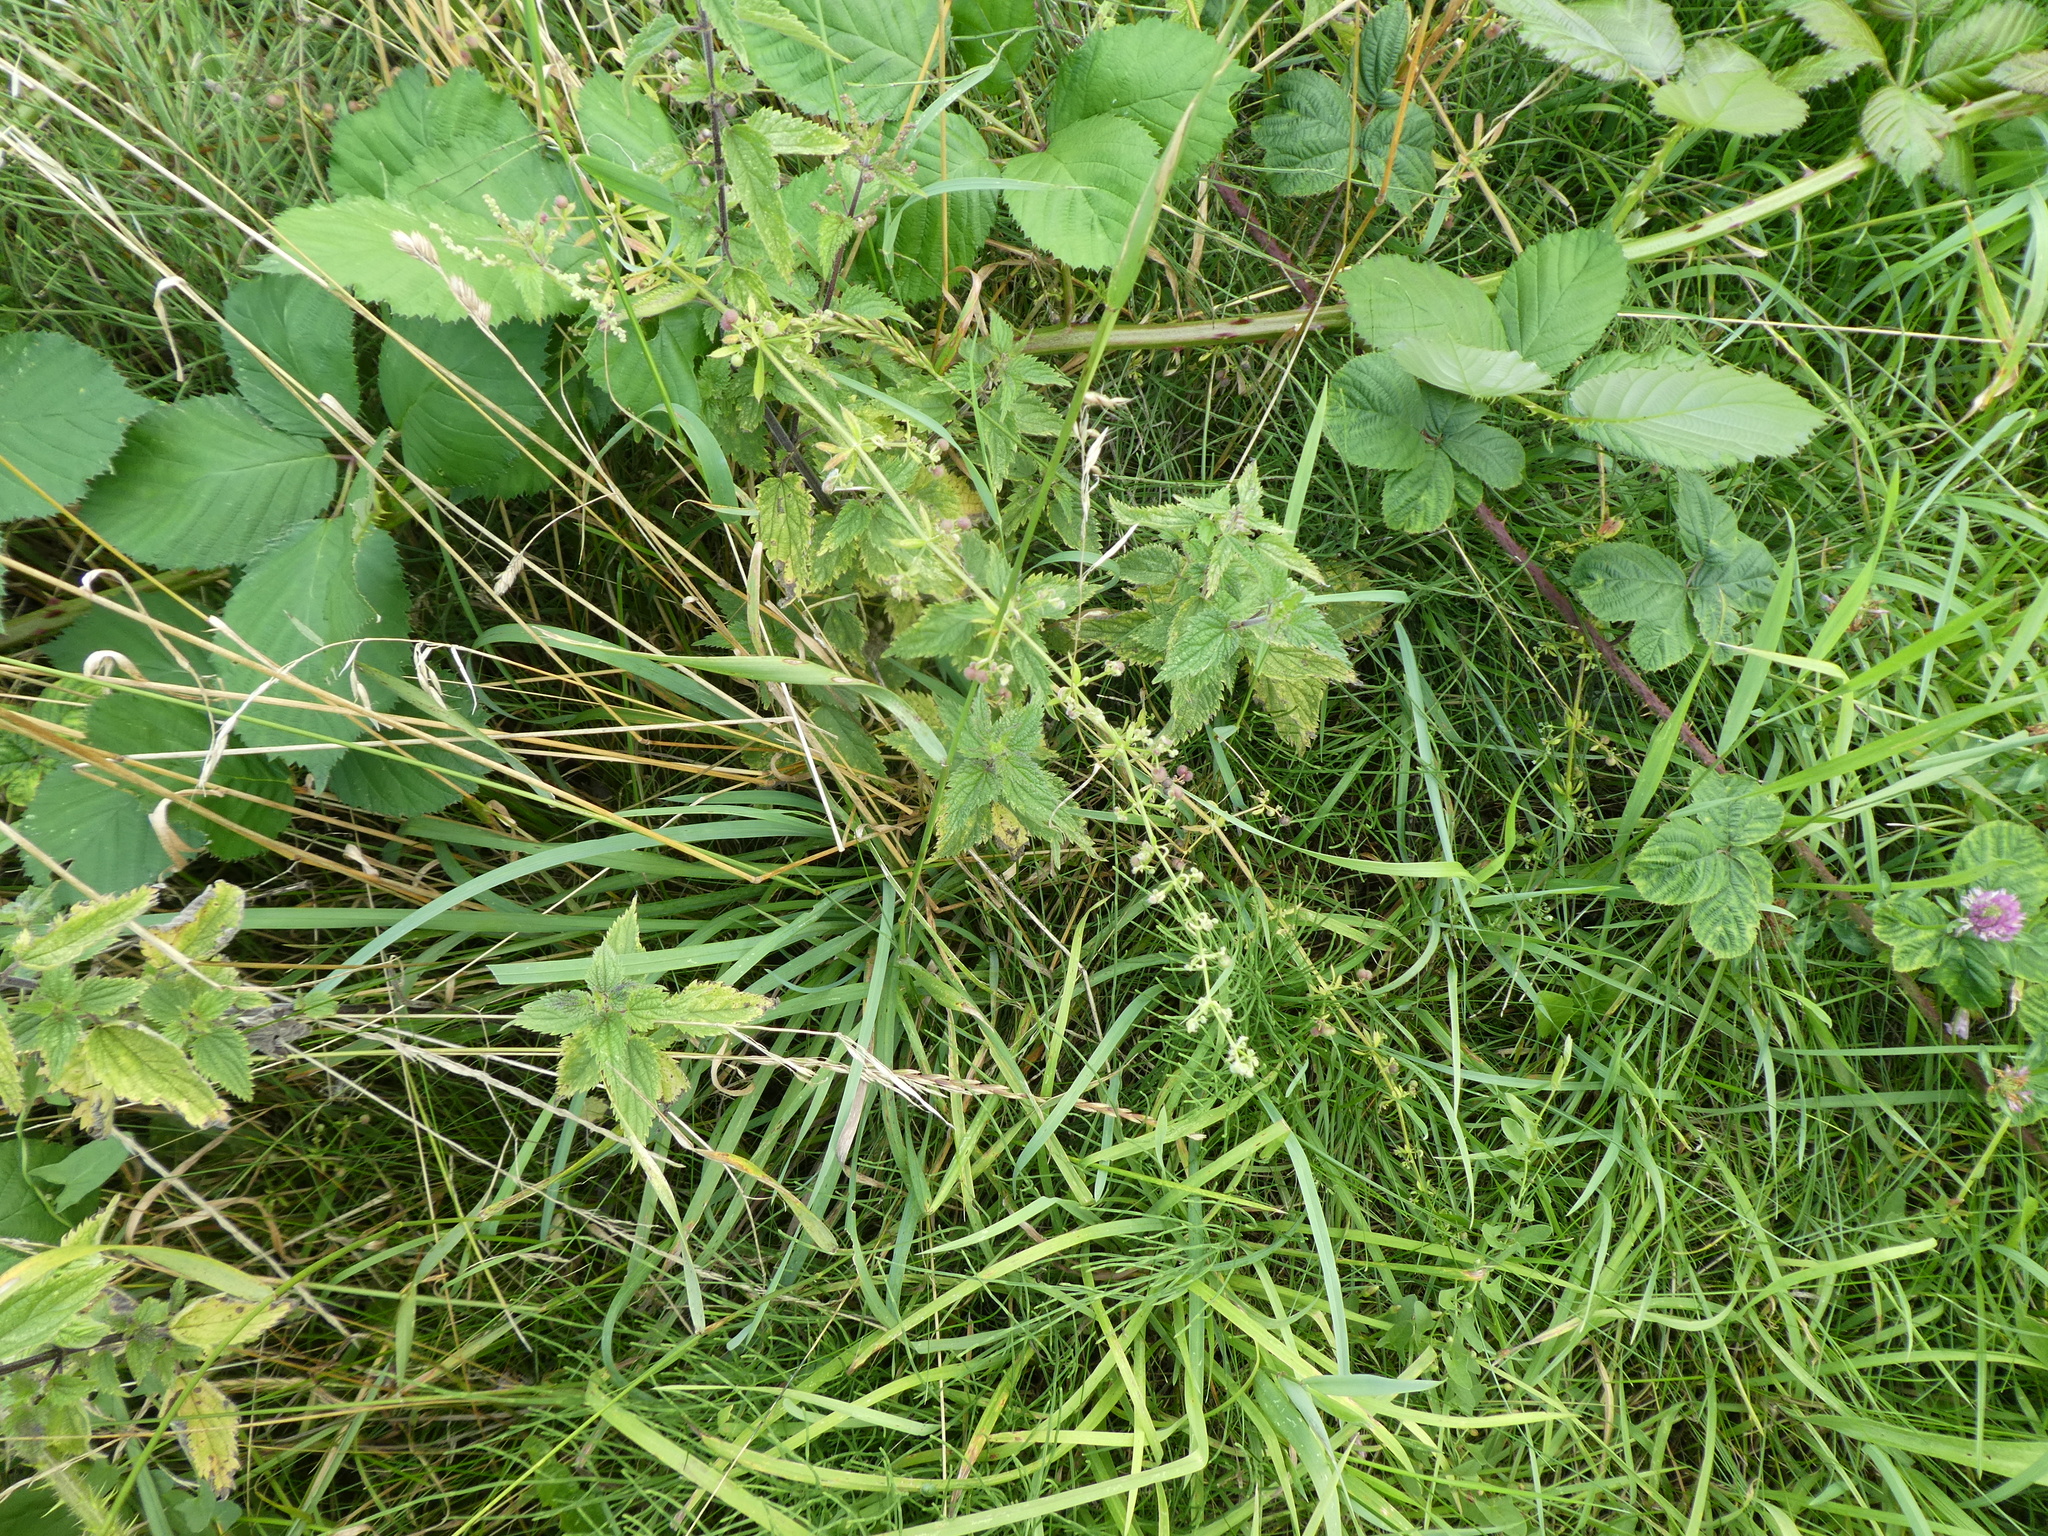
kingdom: Plantae
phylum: Tracheophyta
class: Magnoliopsida
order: Gentianales
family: Rubiaceae
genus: Galium
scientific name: Galium aparine
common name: Cleavers
